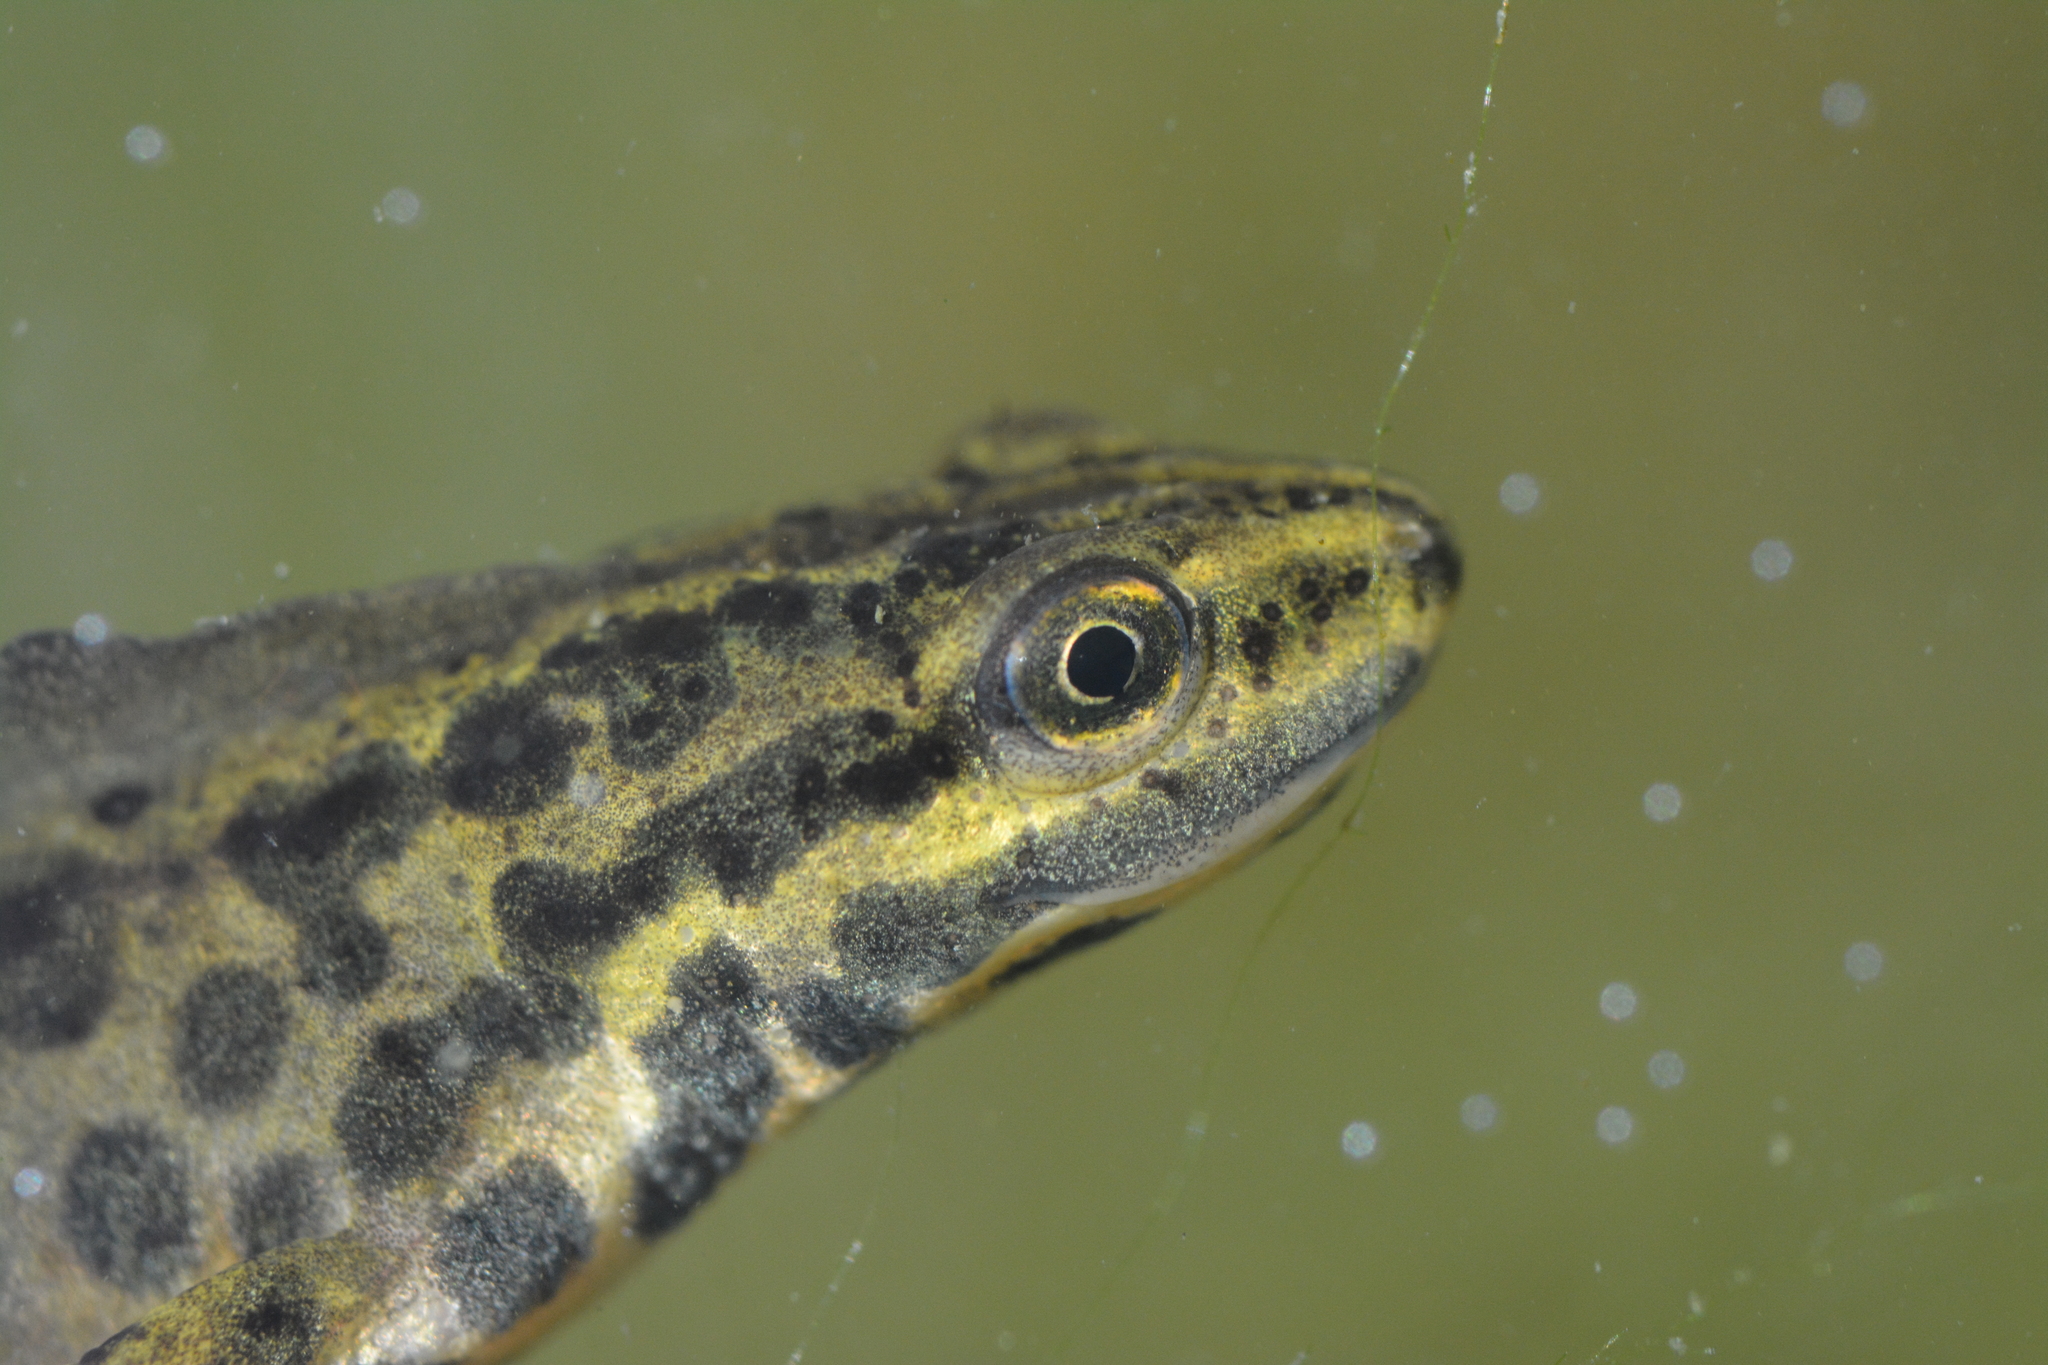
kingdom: Animalia
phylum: Chordata
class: Amphibia
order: Caudata
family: Salamandridae
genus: Lissotriton
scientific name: Lissotriton vulgaris
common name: Smooth newt
